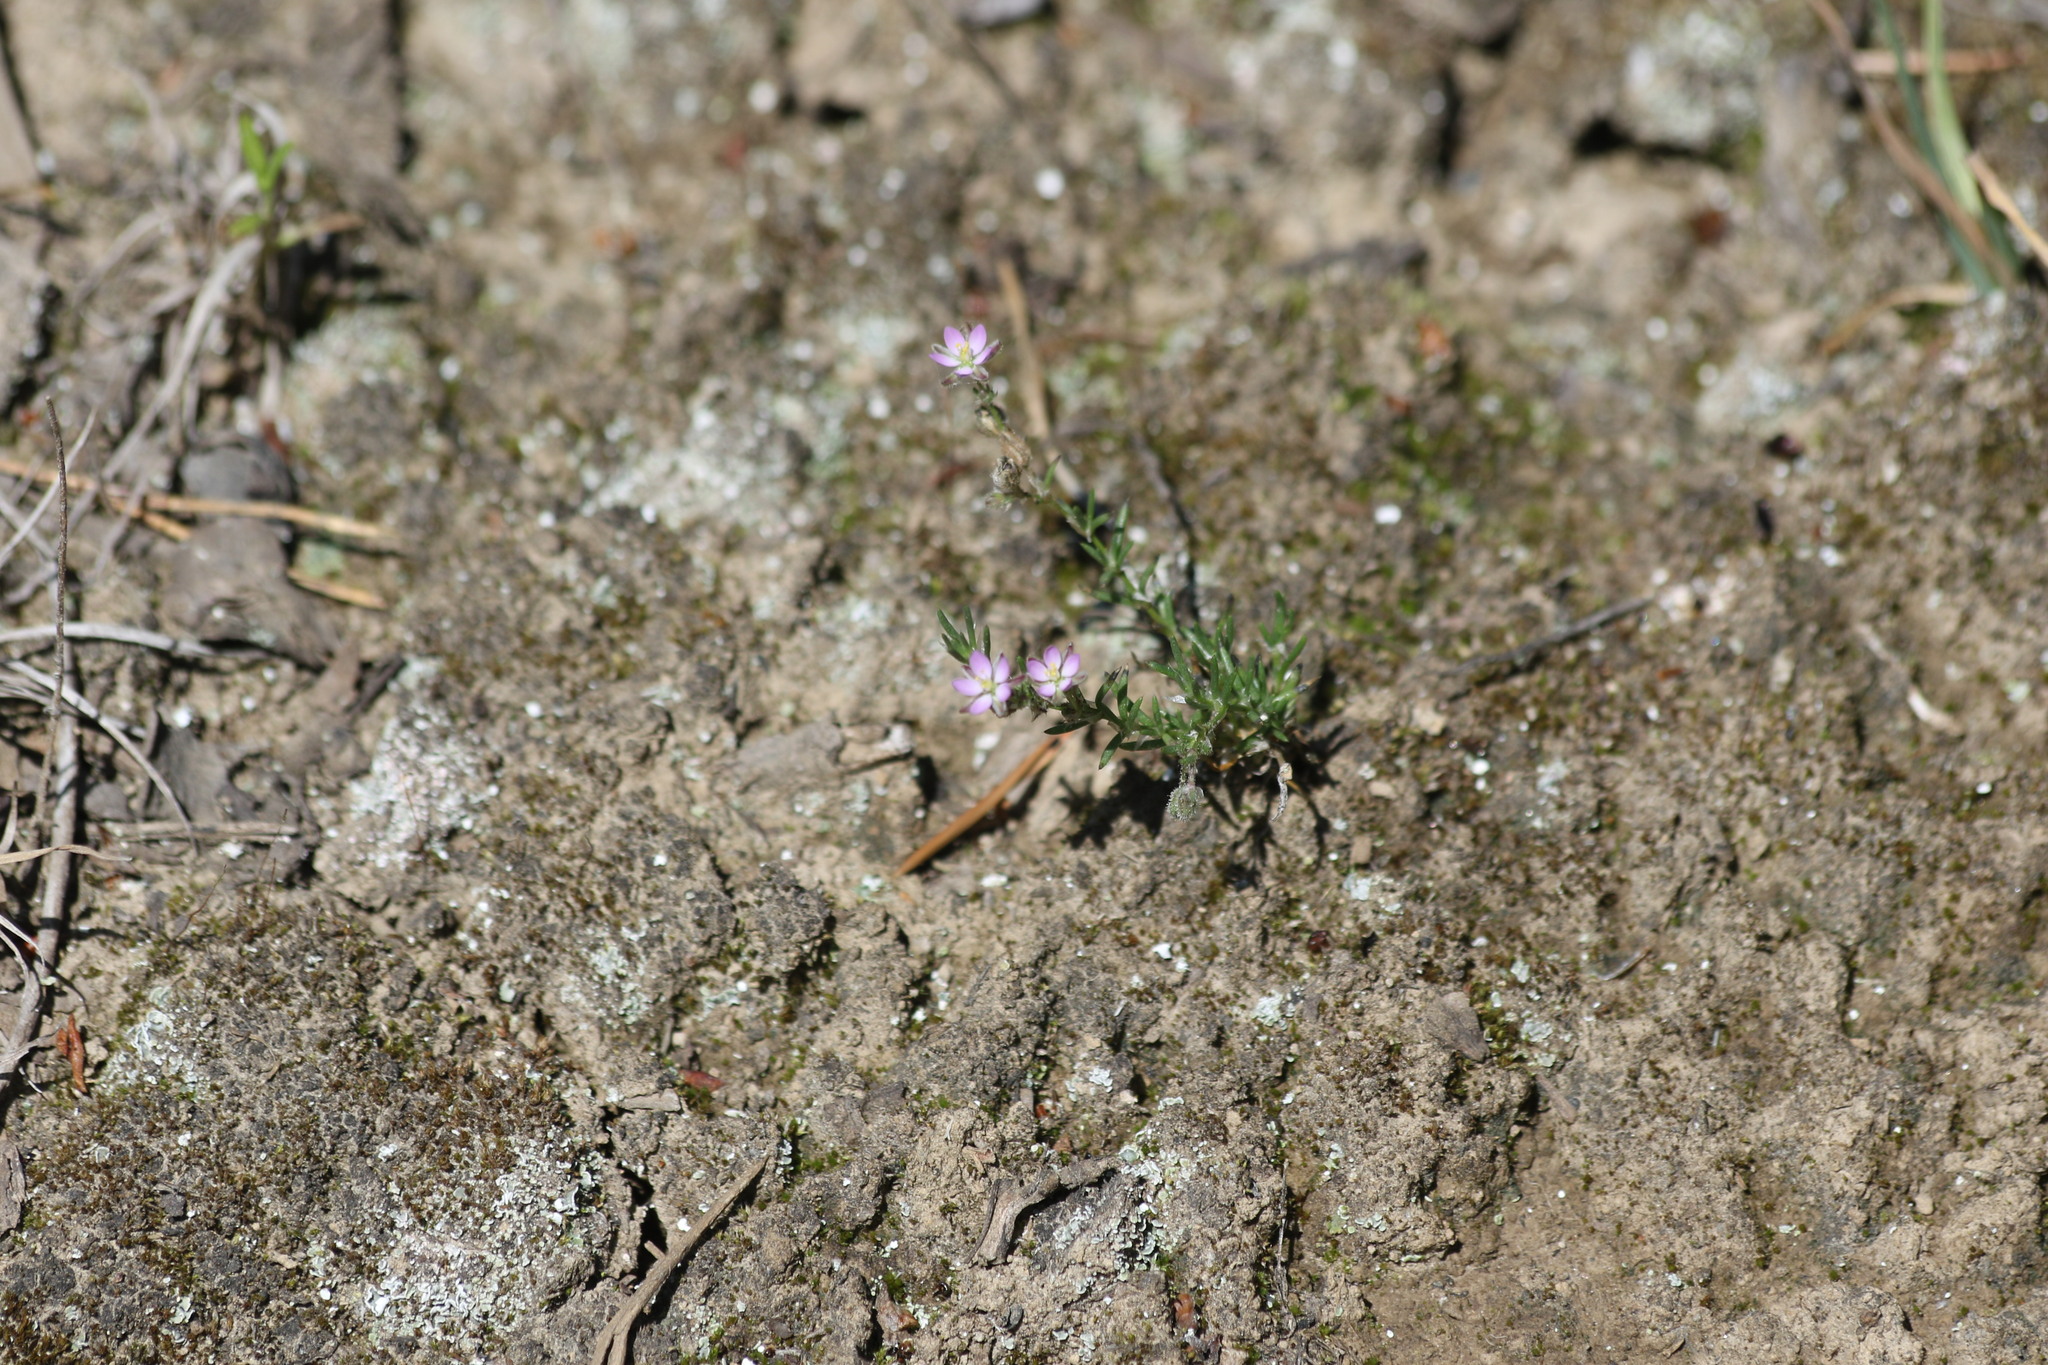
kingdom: Plantae
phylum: Tracheophyta
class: Magnoliopsida
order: Caryophyllales
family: Caryophyllaceae
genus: Spergularia
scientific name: Spergularia rubra
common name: Red sand-spurrey
